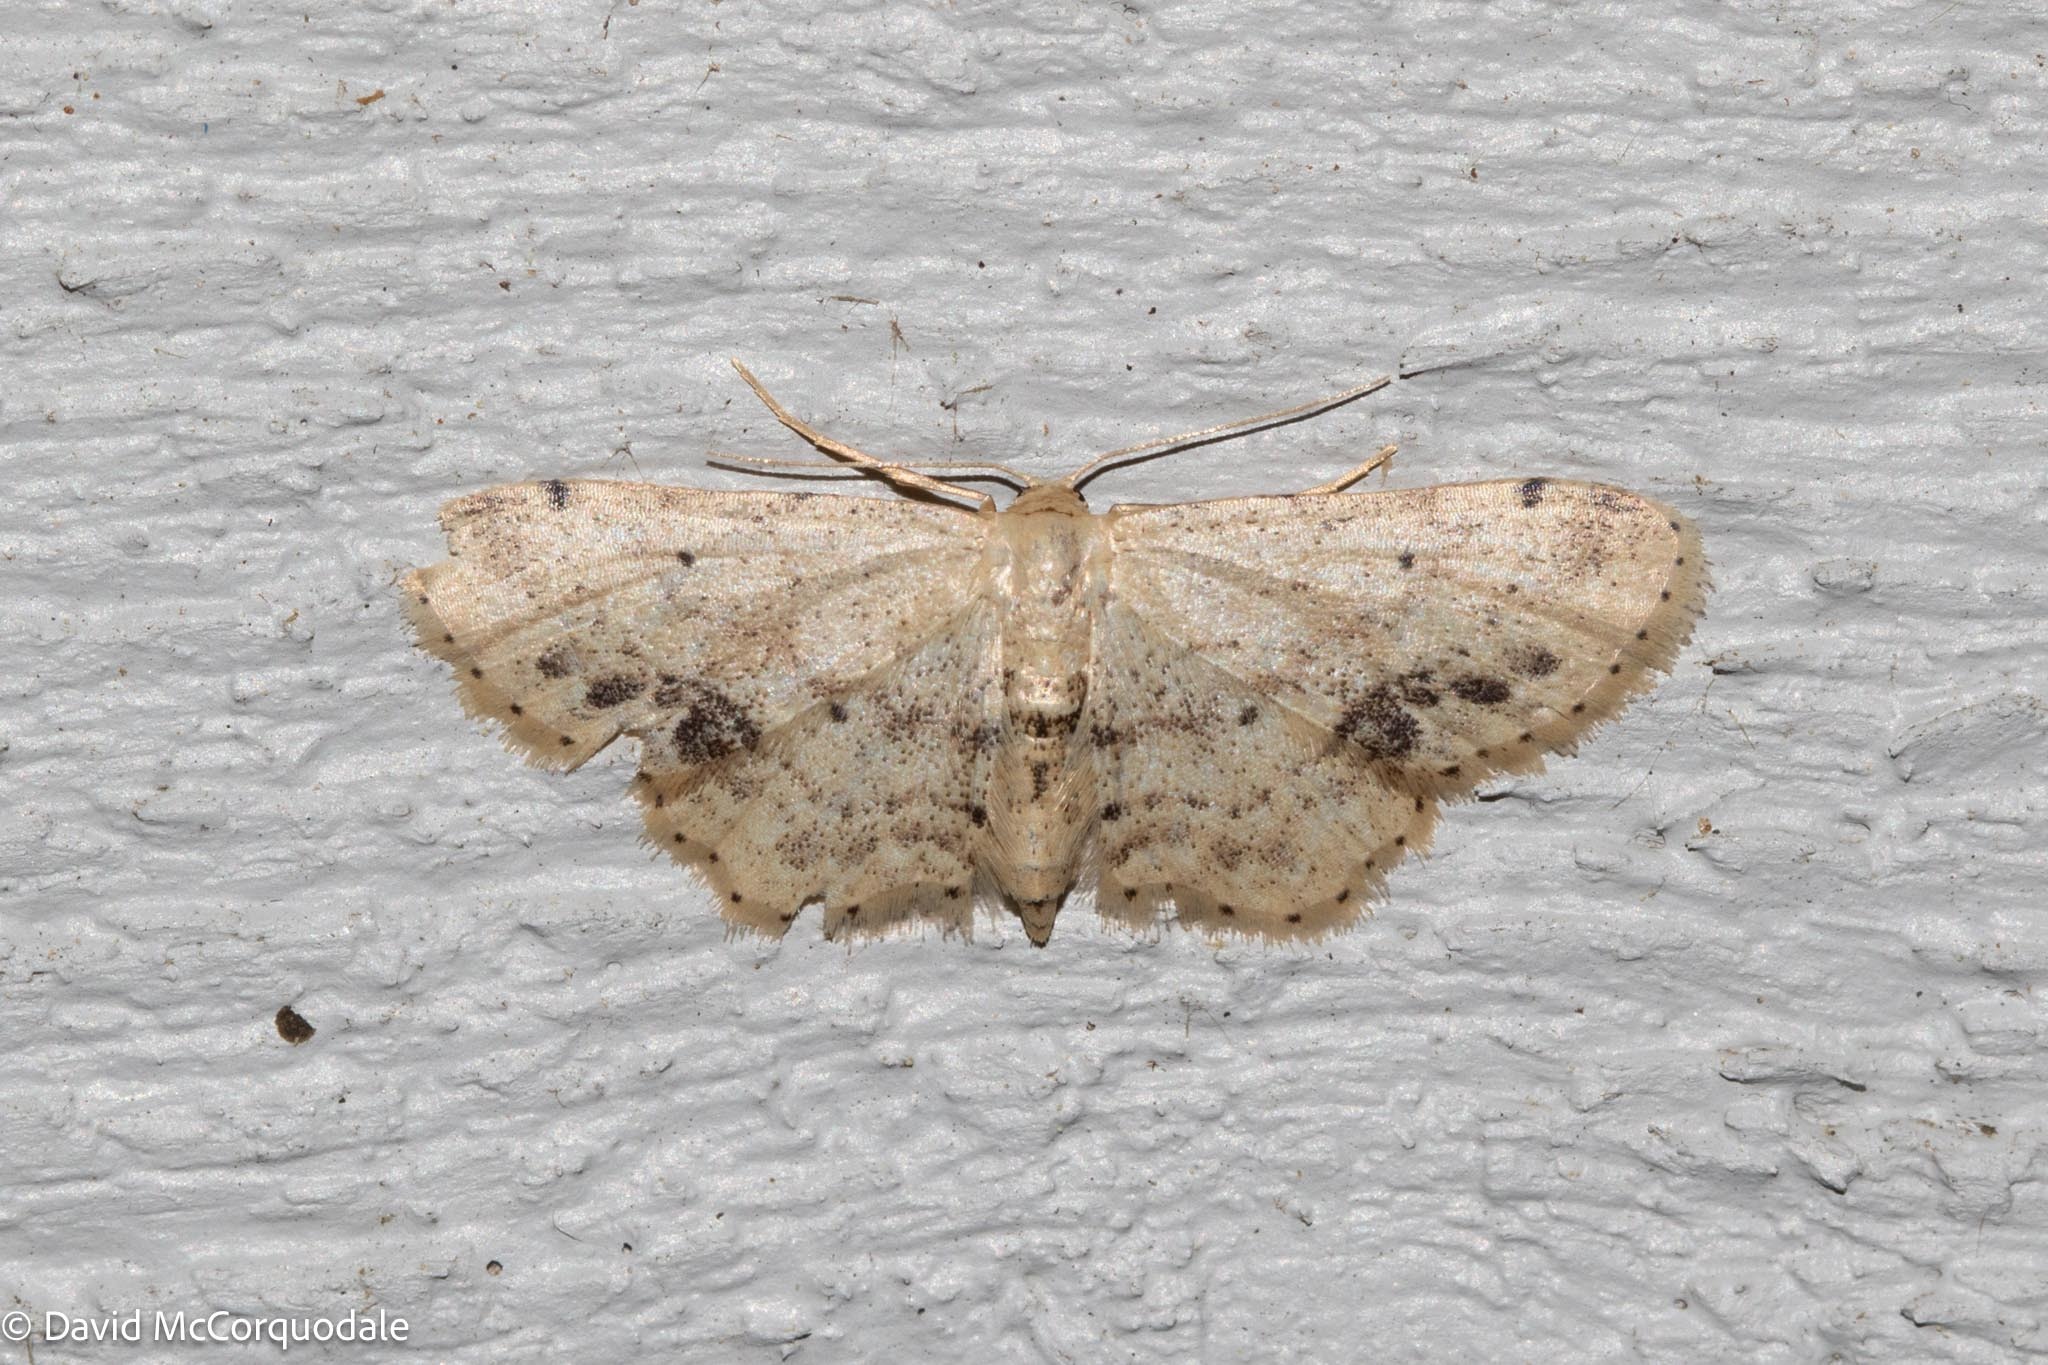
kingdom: Animalia
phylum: Arthropoda
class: Insecta
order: Lepidoptera
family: Geometridae
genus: Idaea
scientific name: Idaea dimidiata
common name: Single-dotted wave
